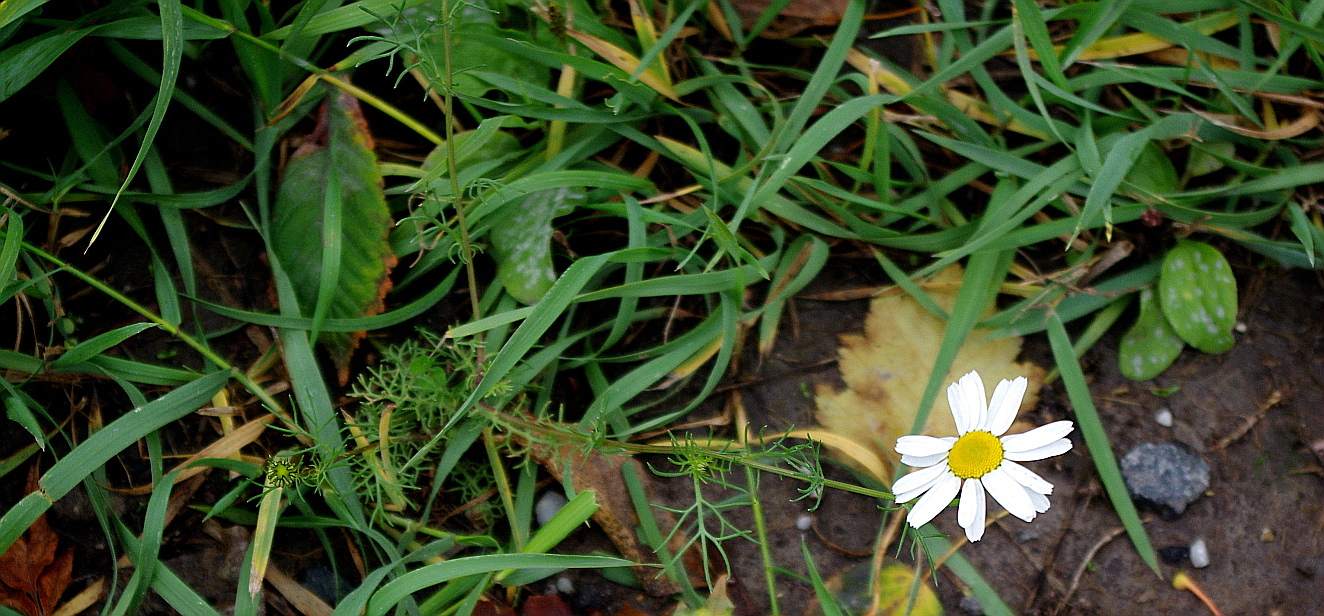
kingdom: Plantae
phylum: Tracheophyta
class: Magnoliopsida
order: Asterales
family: Asteraceae
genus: Tripleurospermum
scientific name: Tripleurospermum inodorum
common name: Scentless mayweed
